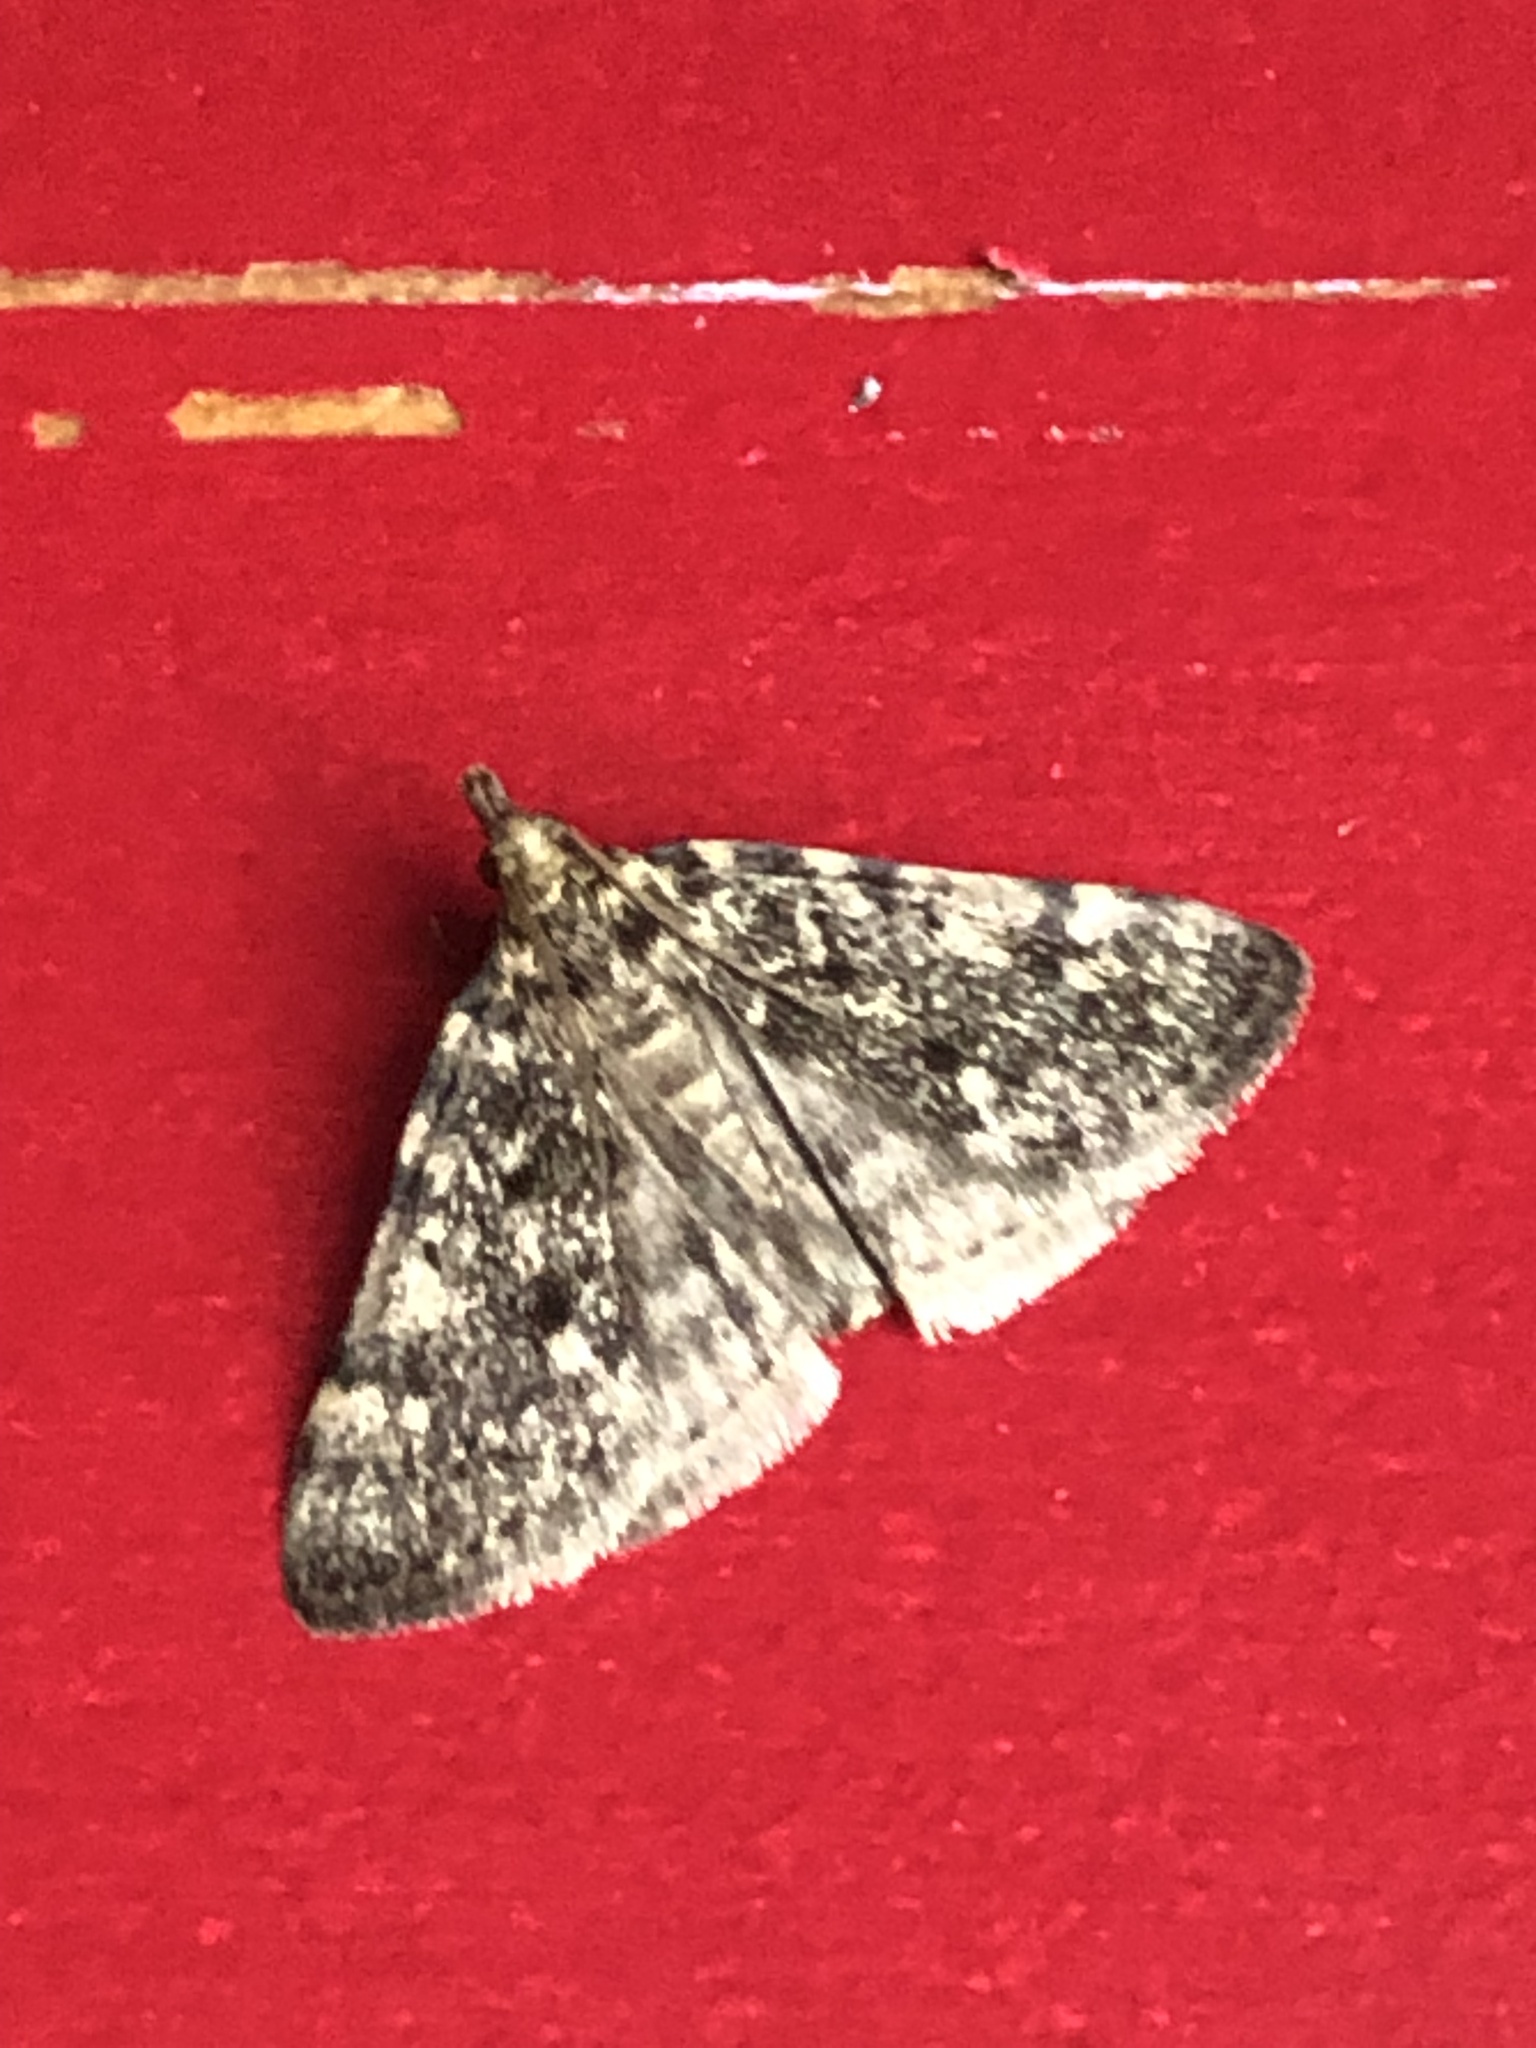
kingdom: Animalia
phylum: Arthropoda
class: Insecta
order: Lepidoptera
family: Pyralidae
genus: Aglossa
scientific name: Aglossa pinguinalis
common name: Large tabby
